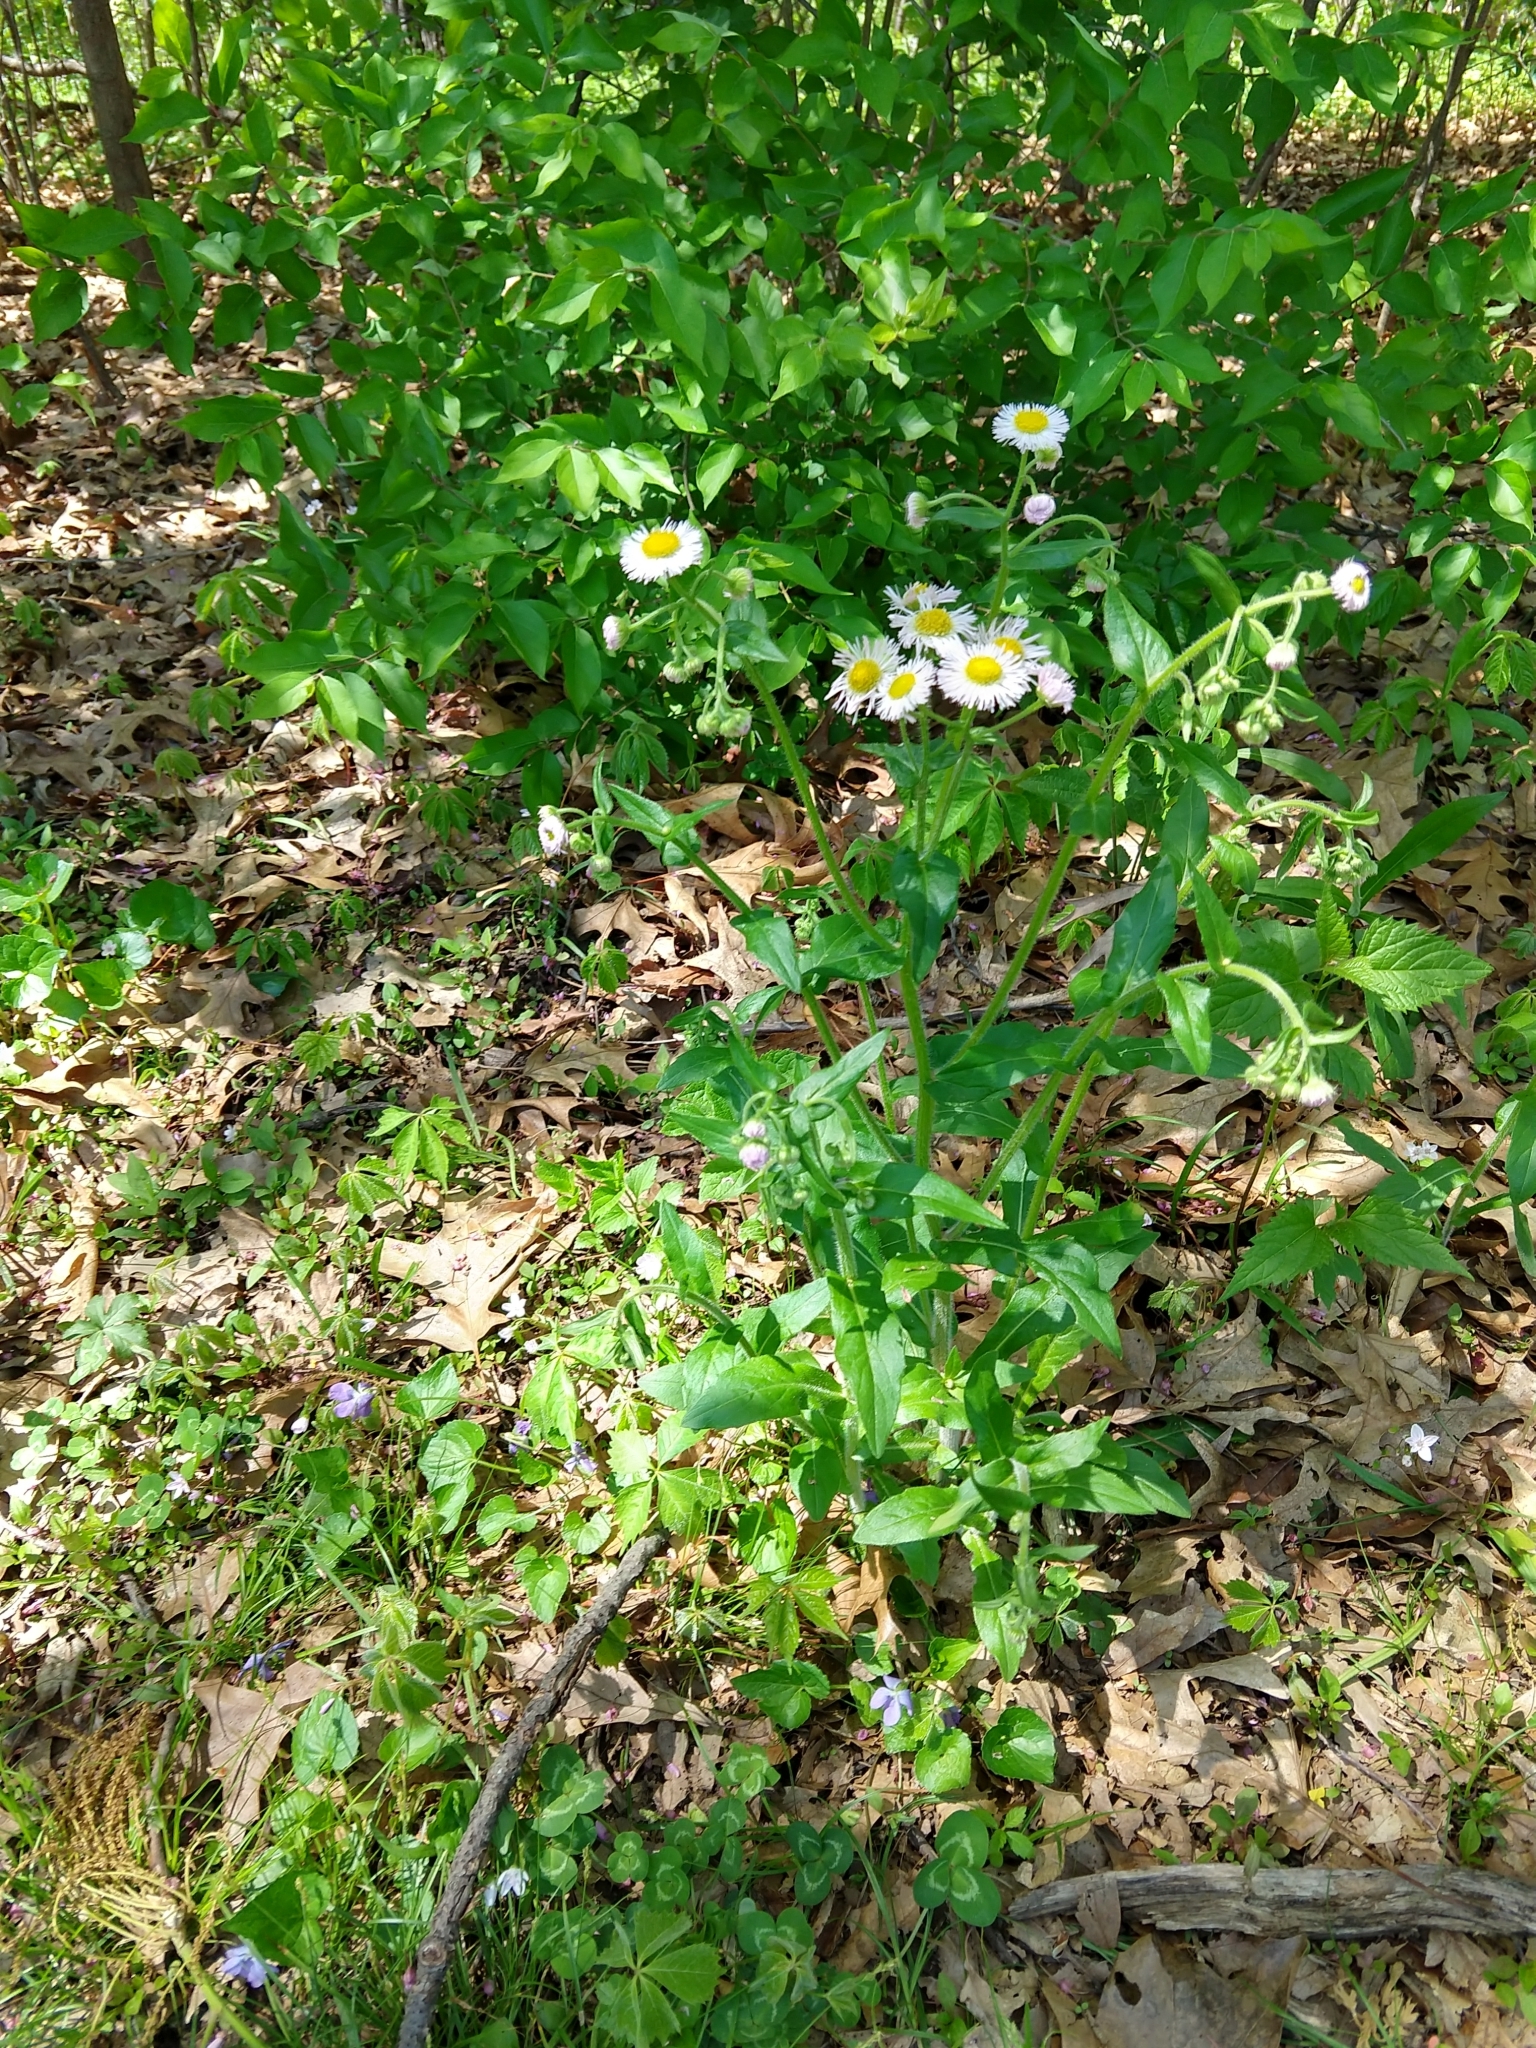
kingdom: Plantae
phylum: Tracheophyta
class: Magnoliopsida
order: Asterales
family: Asteraceae
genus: Erigeron
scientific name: Erigeron philadelphicus
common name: Robin's-plantain
